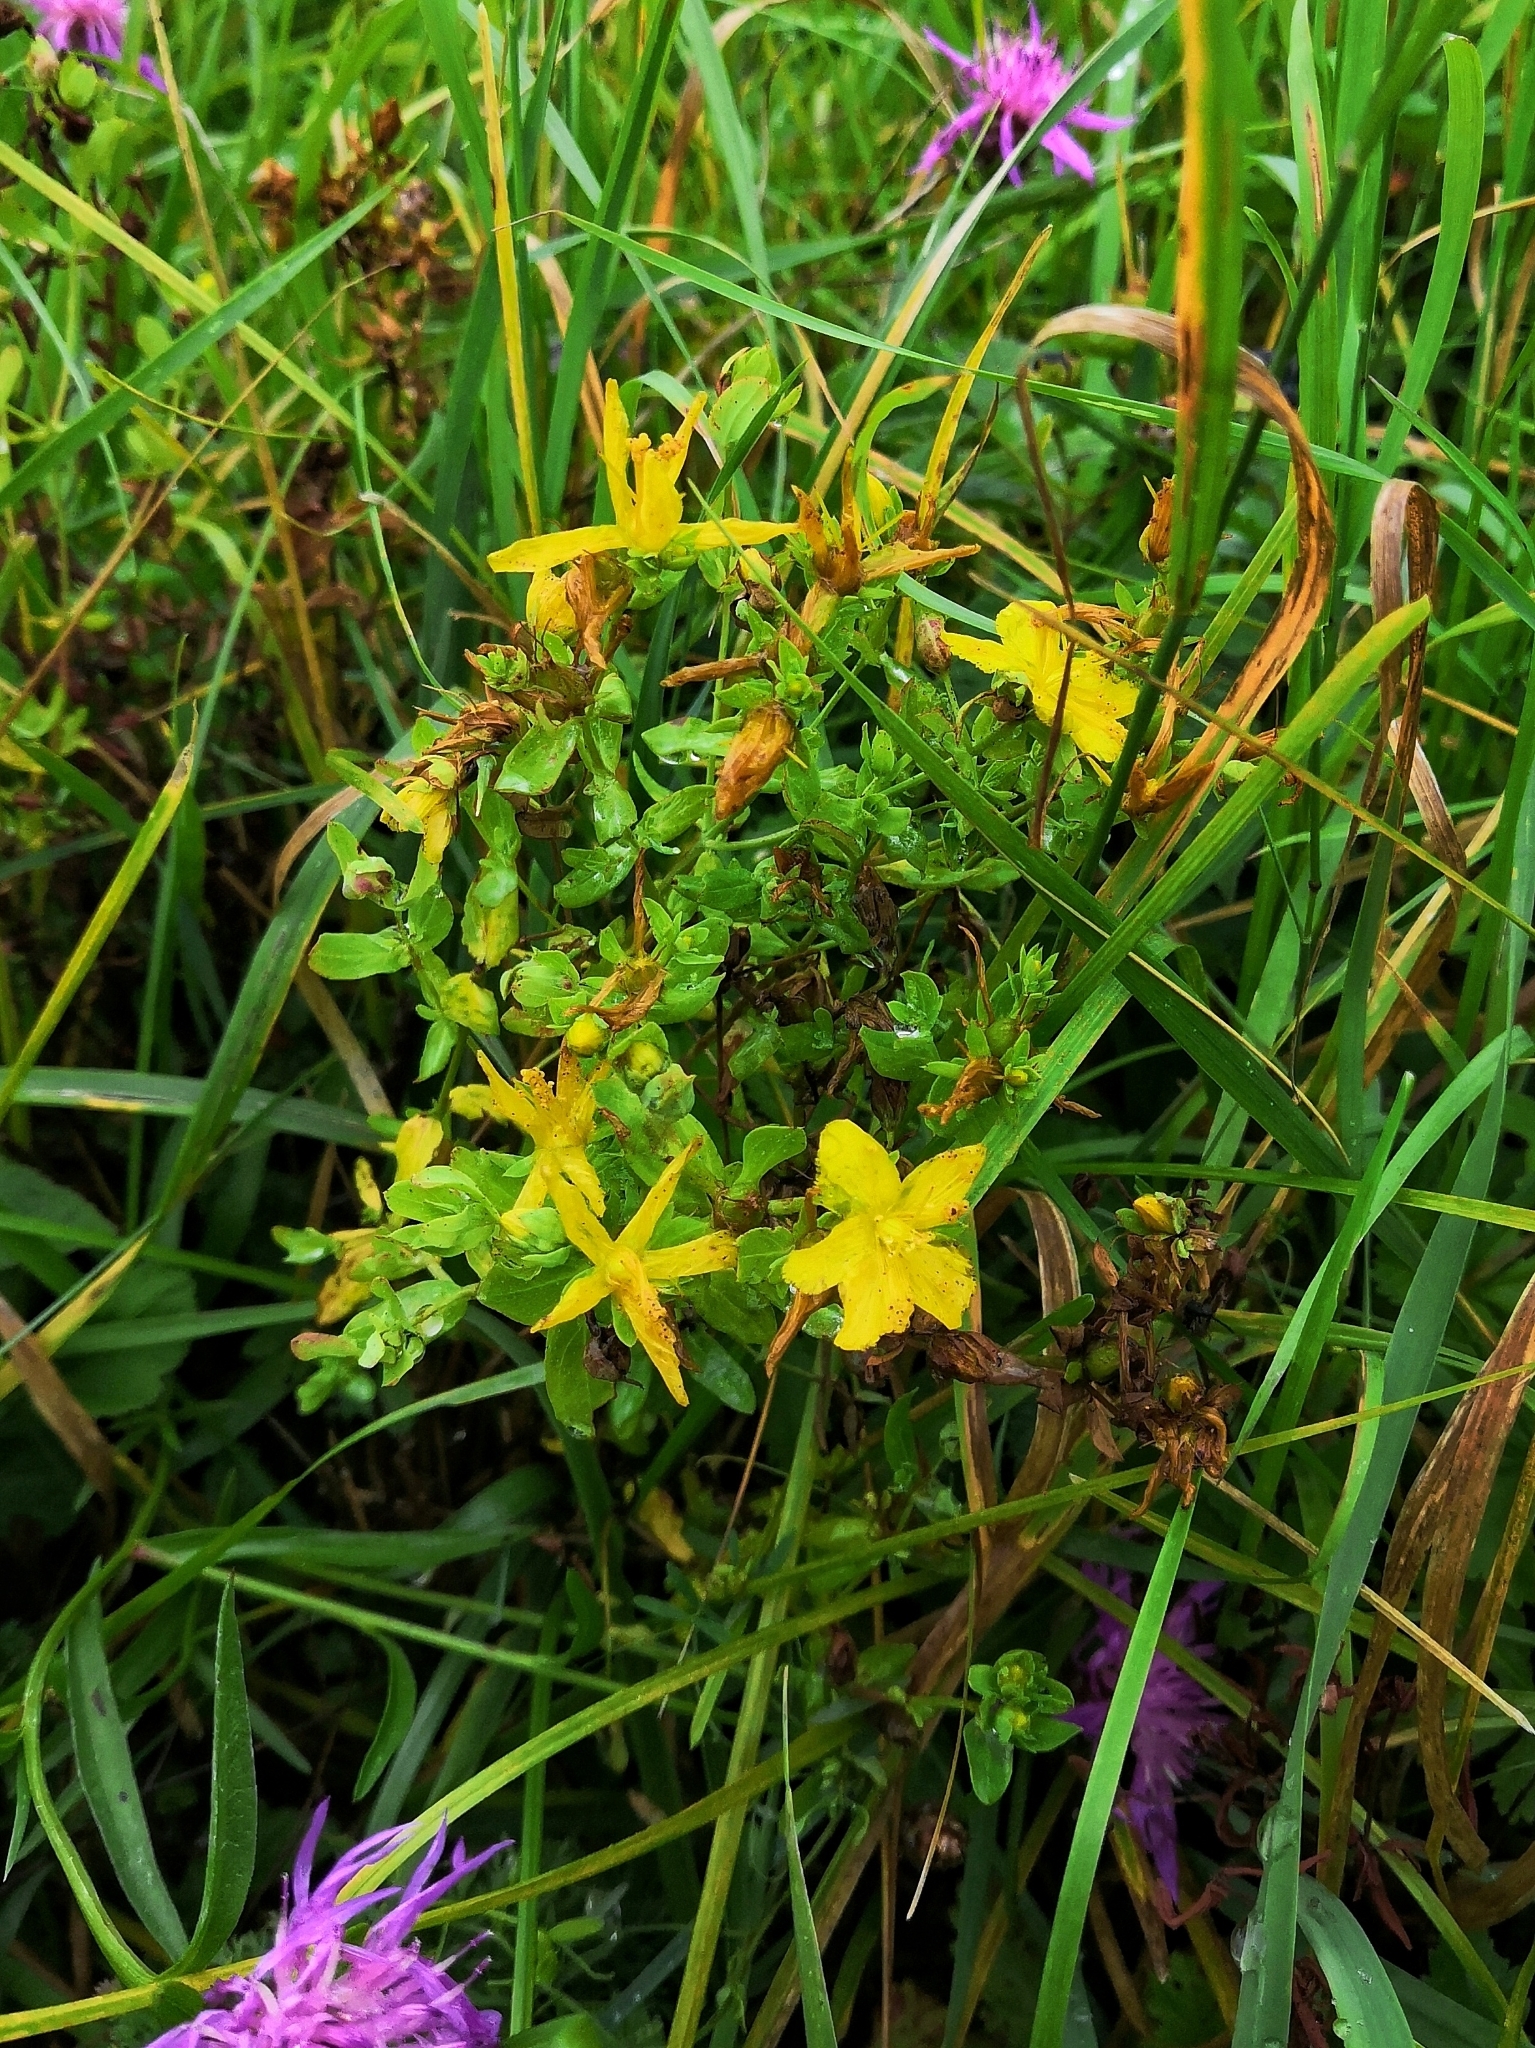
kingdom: Plantae
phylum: Tracheophyta
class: Magnoliopsida
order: Malpighiales
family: Hypericaceae
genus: Hypericum
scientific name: Hypericum perforatum
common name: Common st. johnswort
